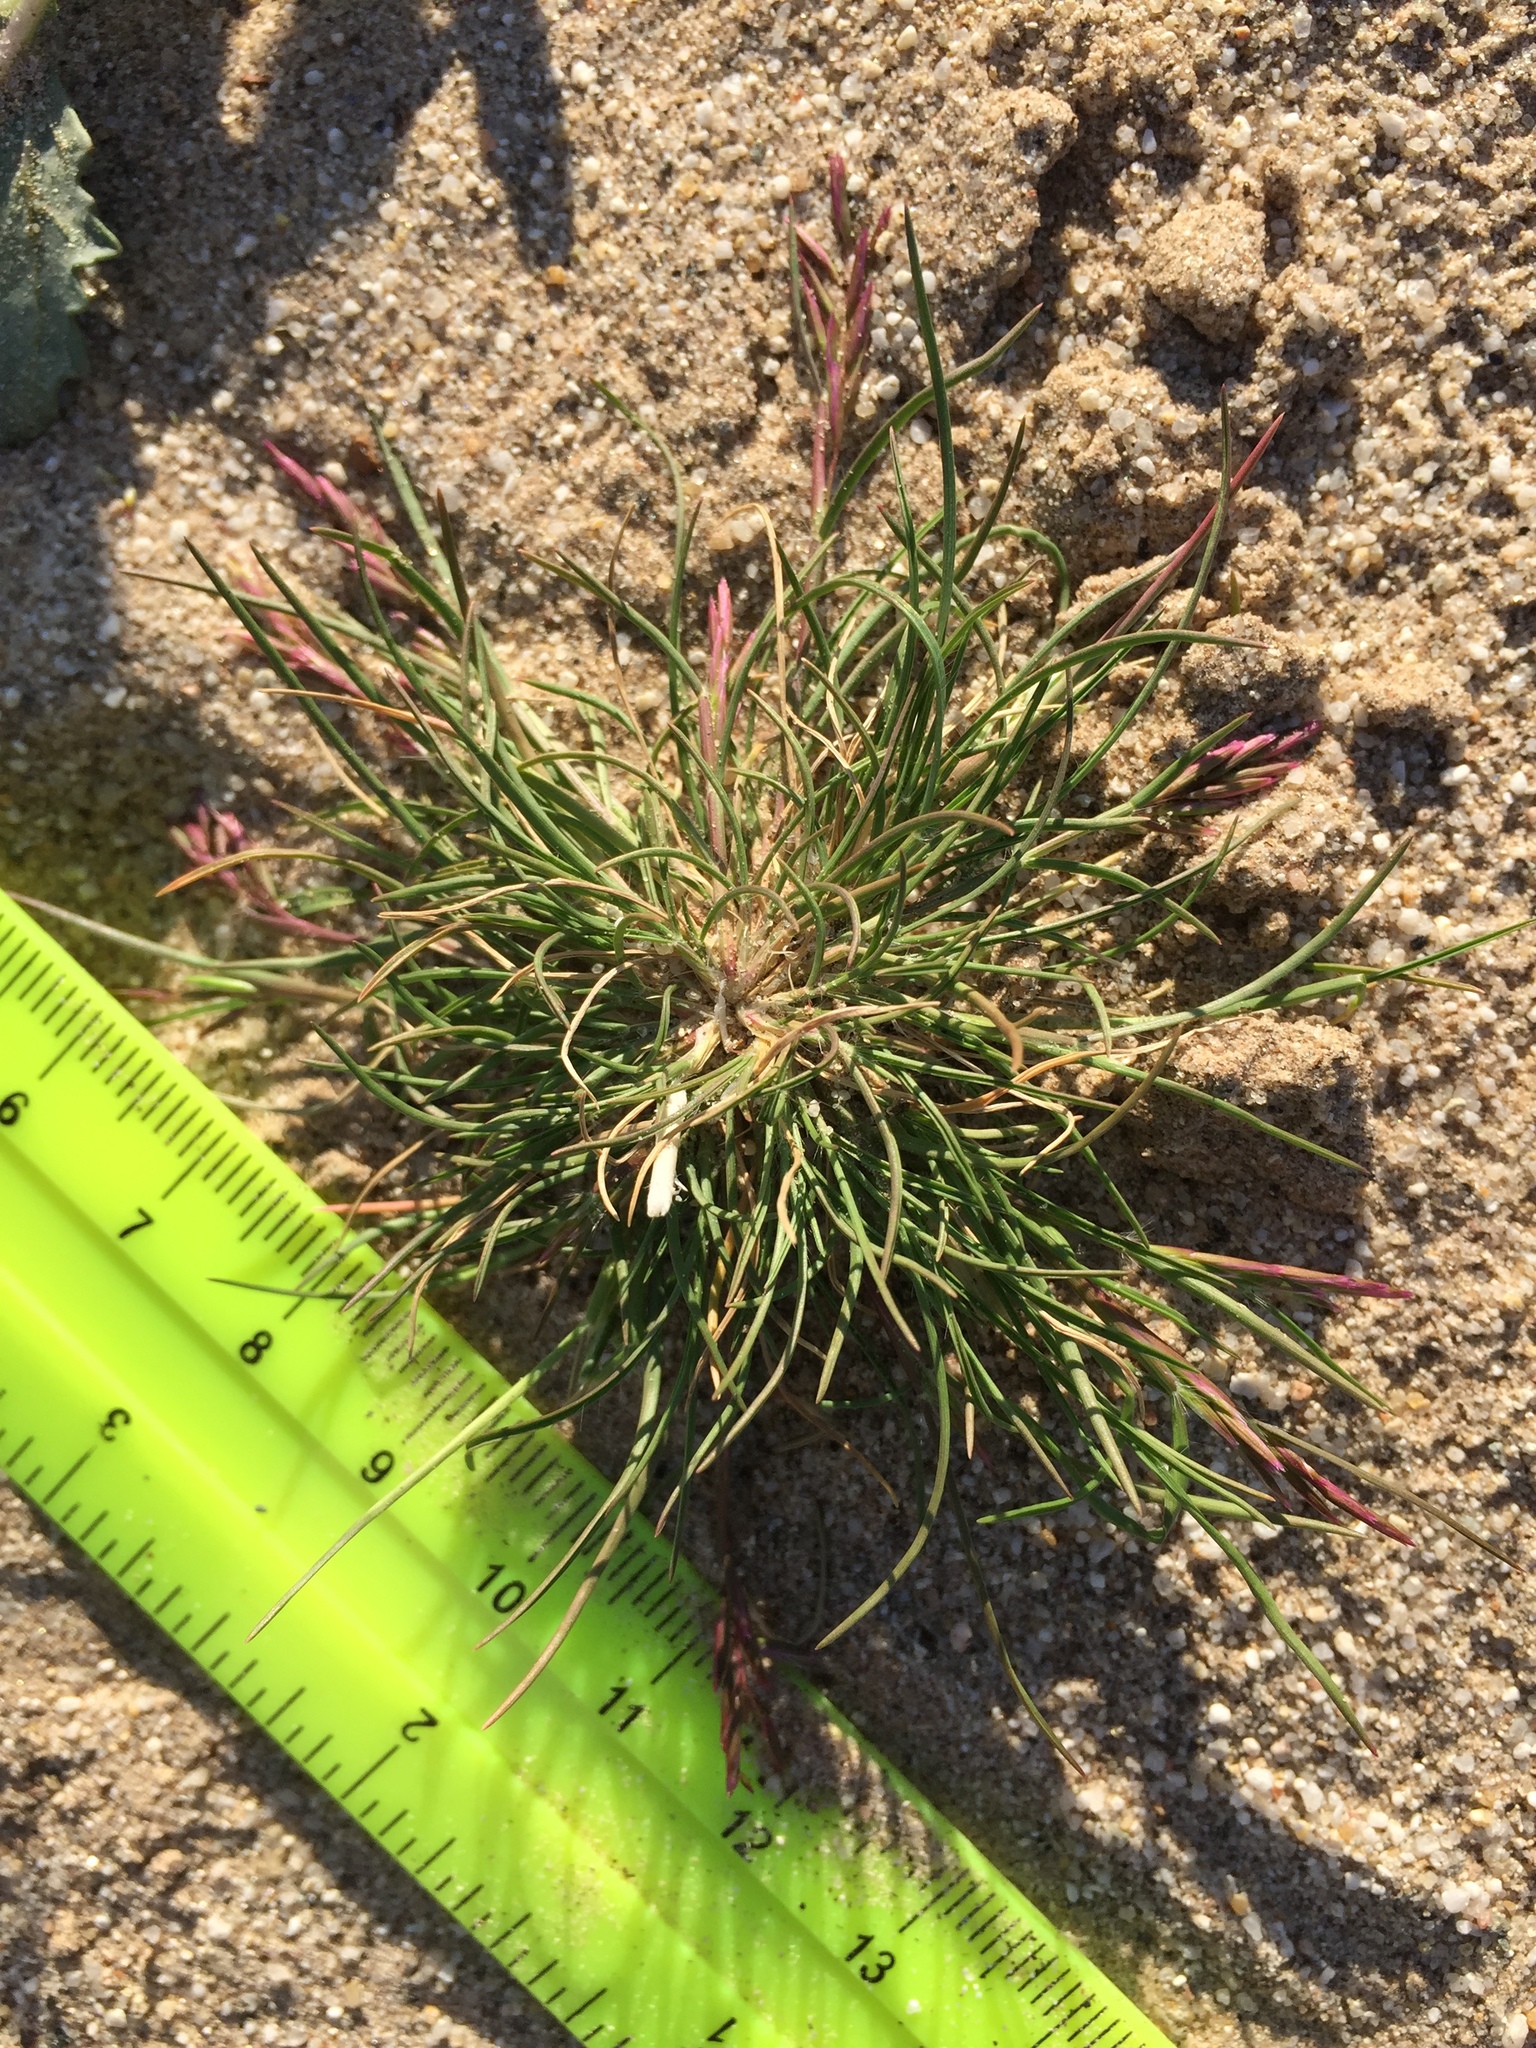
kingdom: Plantae
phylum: Tracheophyta
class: Liliopsida
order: Poales
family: Poaceae
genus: Schismus
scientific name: Schismus barbatus
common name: Kelch-grass
